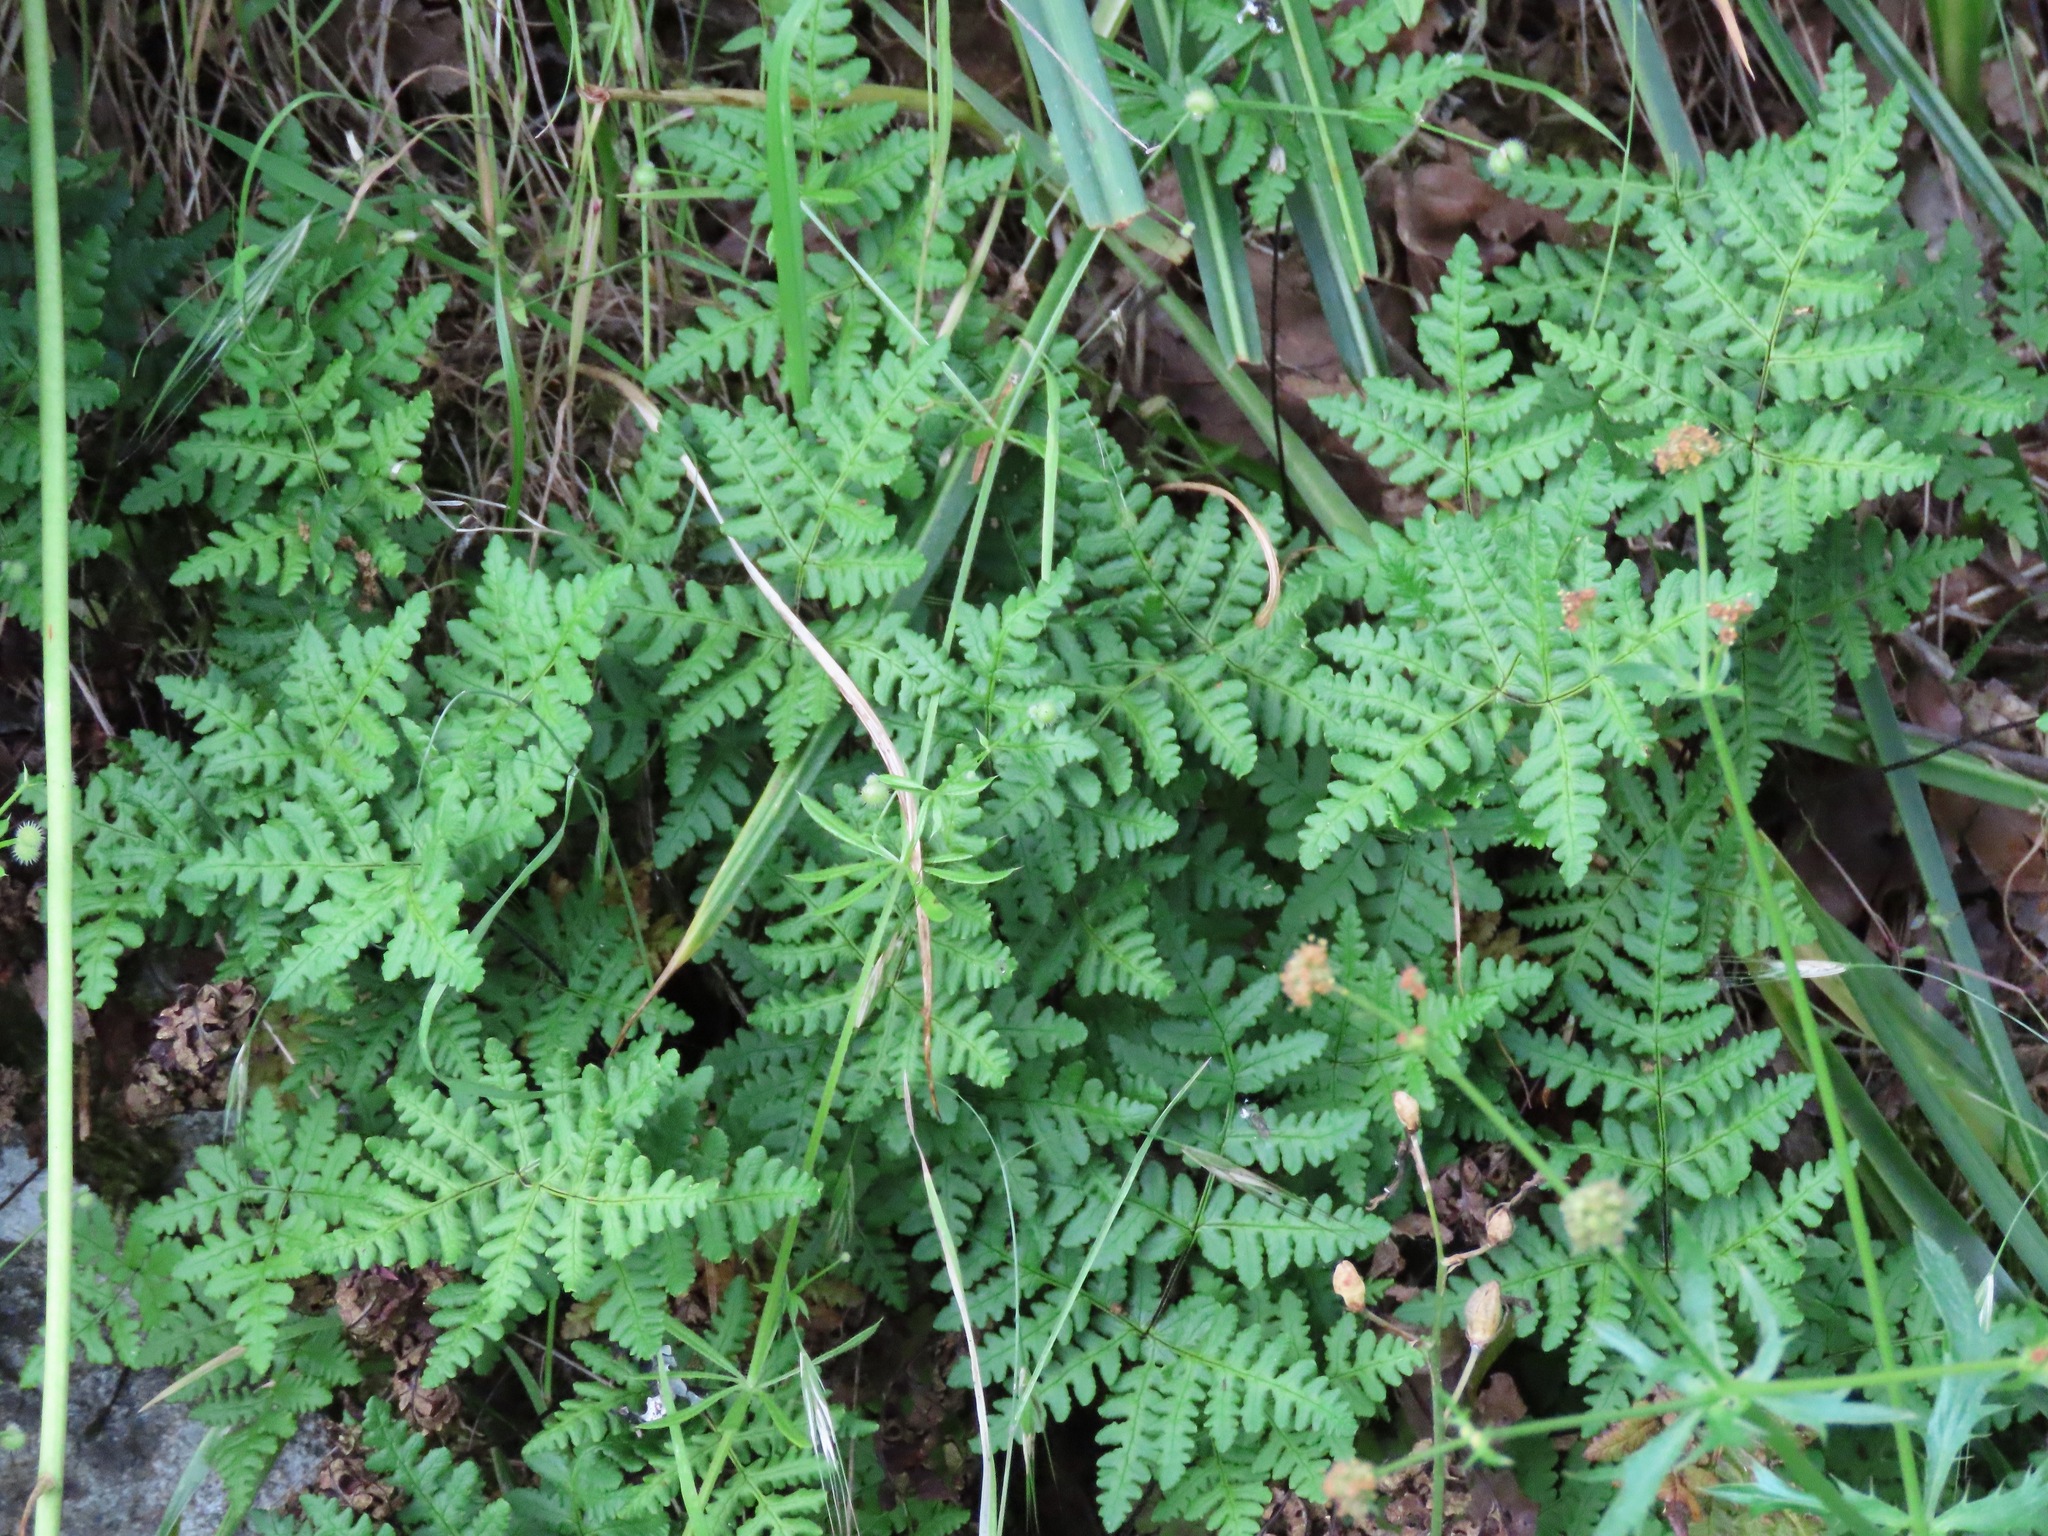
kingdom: Plantae
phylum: Tracheophyta
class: Polypodiopsida
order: Polypodiales
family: Pteridaceae
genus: Pentagramma
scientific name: Pentagramma triangularis
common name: Gold fern
